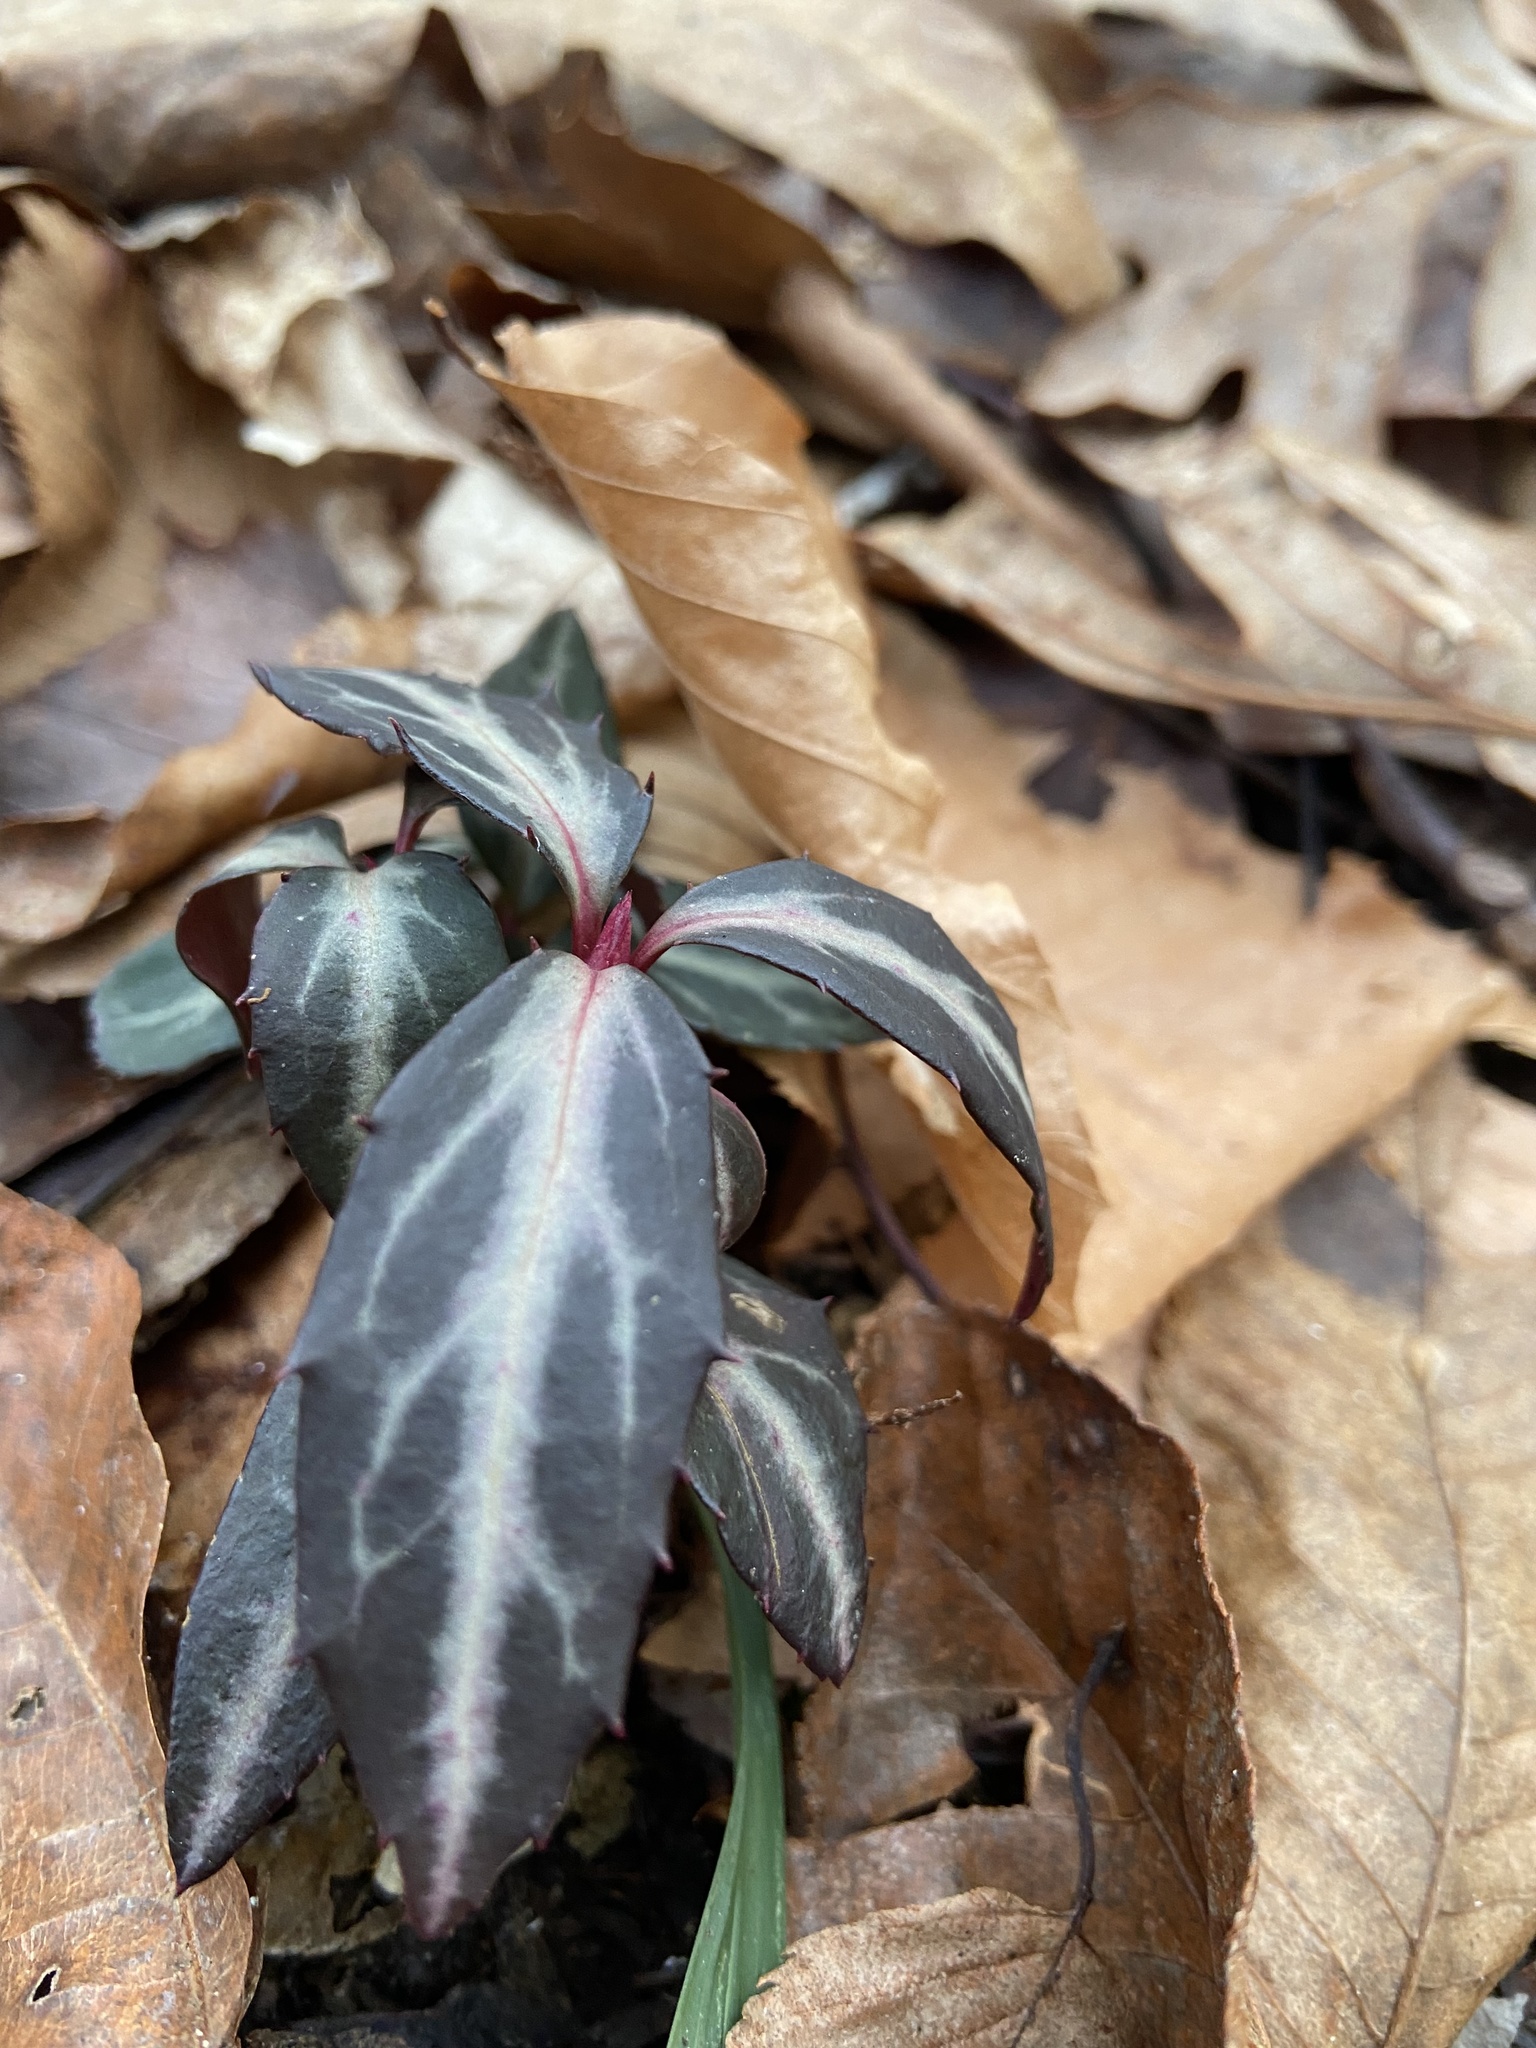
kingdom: Plantae
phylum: Tracheophyta
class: Magnoliopsida
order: Ericales
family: Ericaceae
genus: Chimaphila
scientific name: Chimaphila maculata
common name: Spotted pipsissewa
